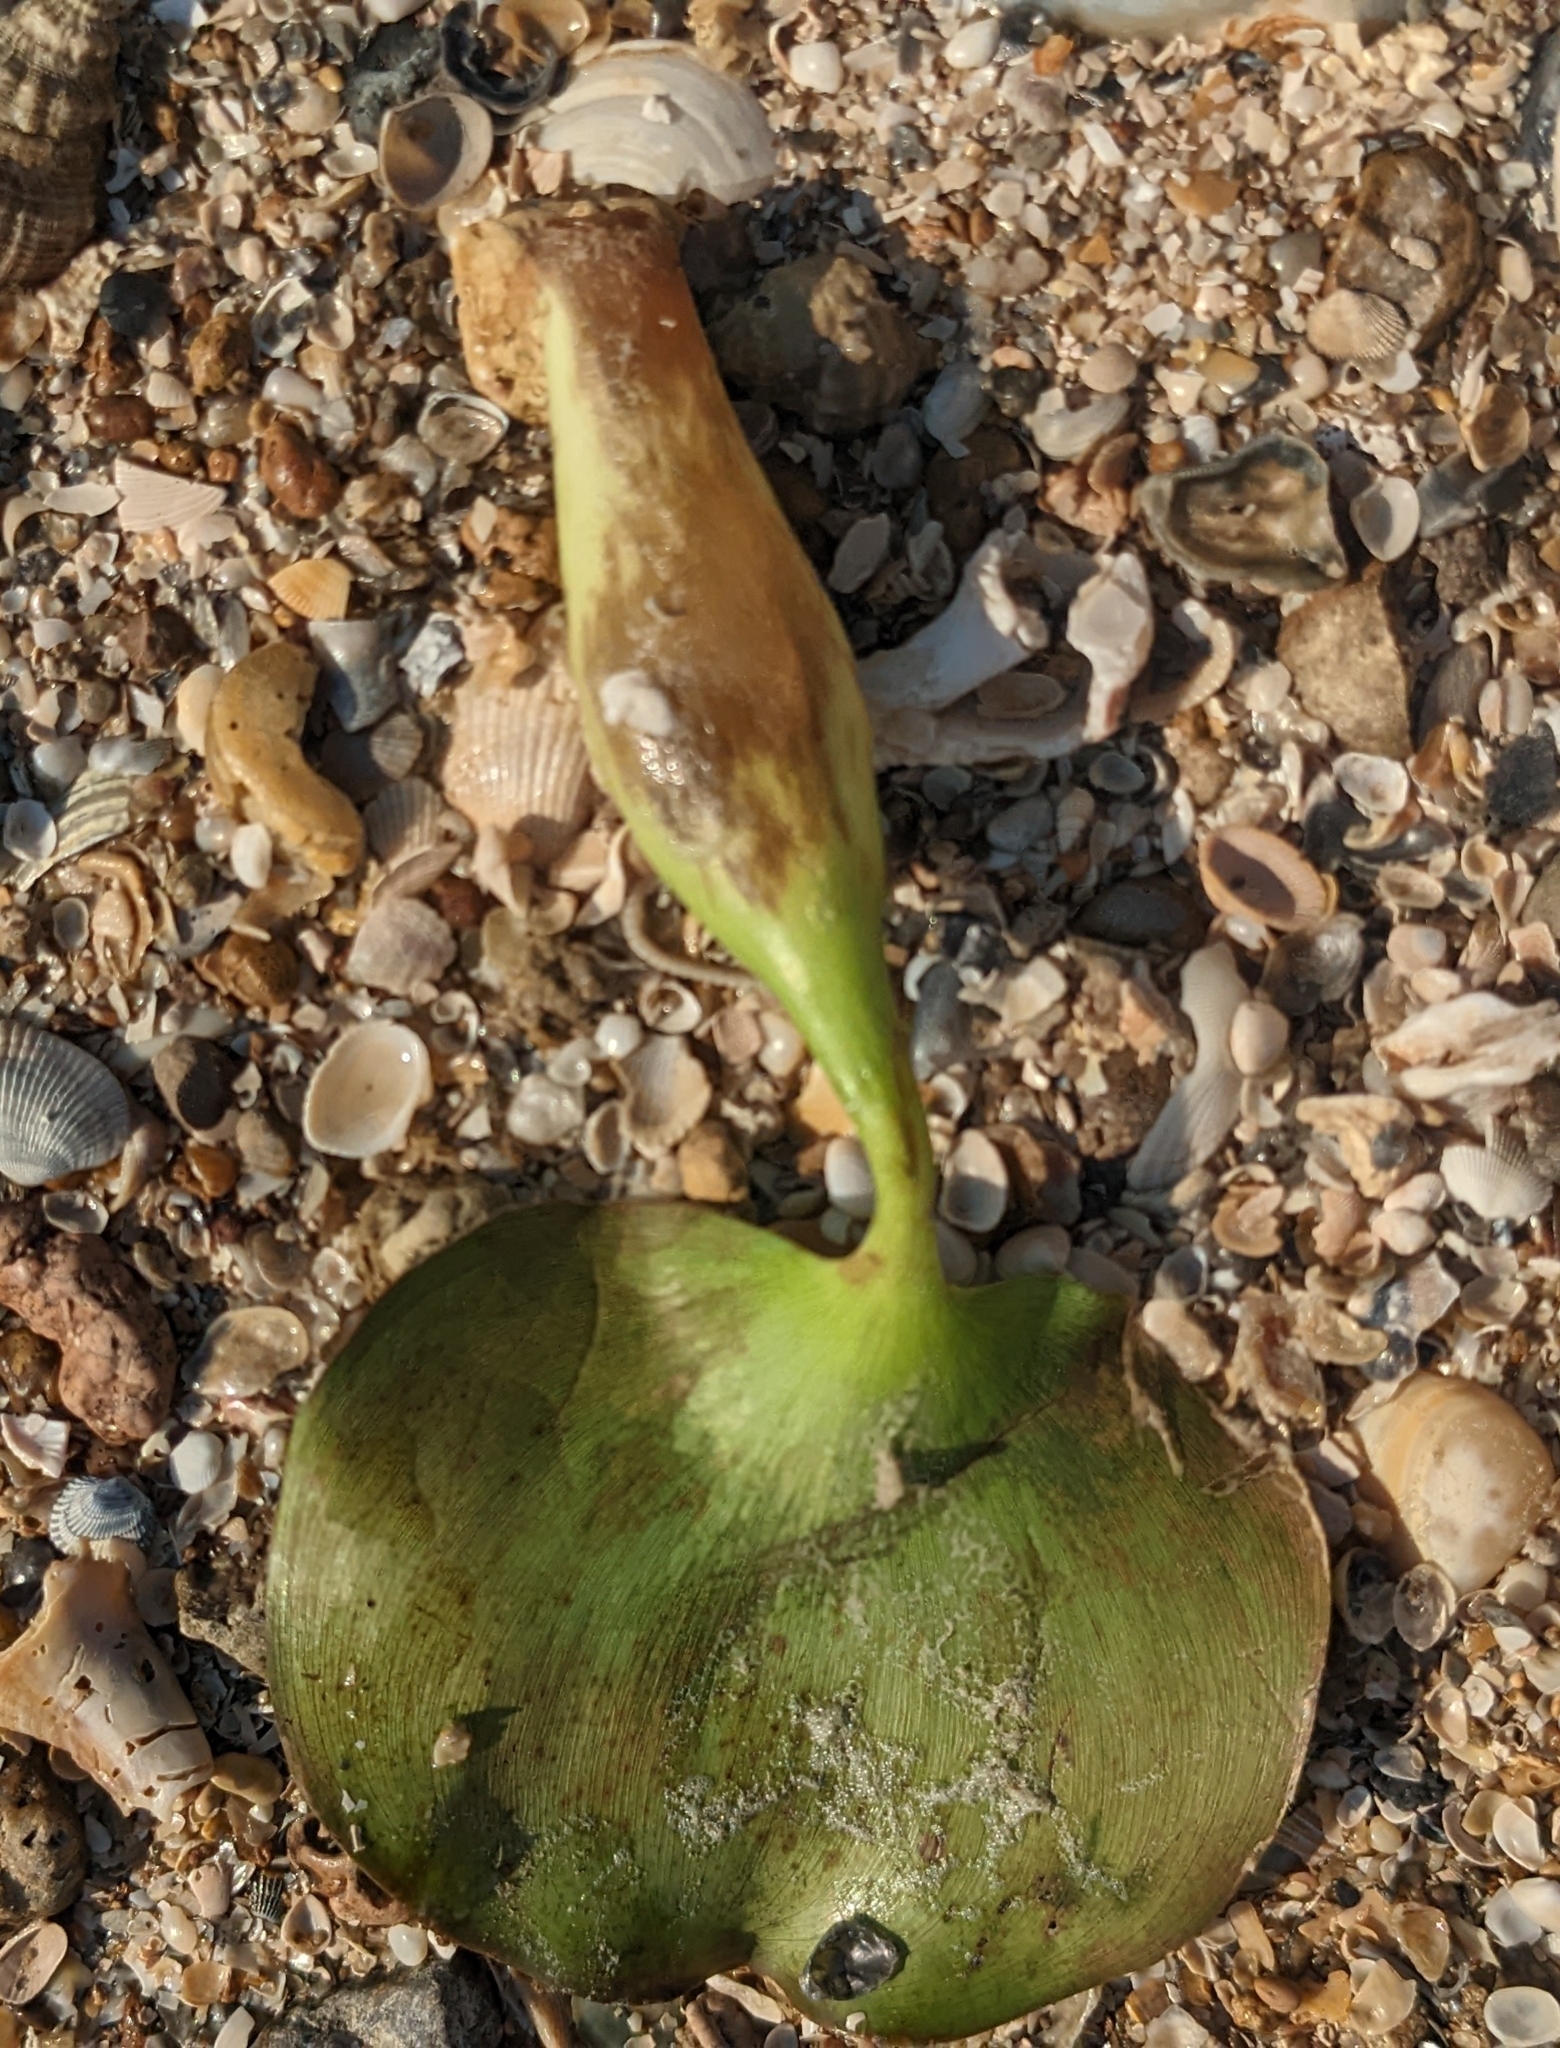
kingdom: Plantae
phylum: Tracheophyta
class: Liliopsida
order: Commelinales
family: Pontederiaceae
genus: Pontederia
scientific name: Pontederia crassipes
